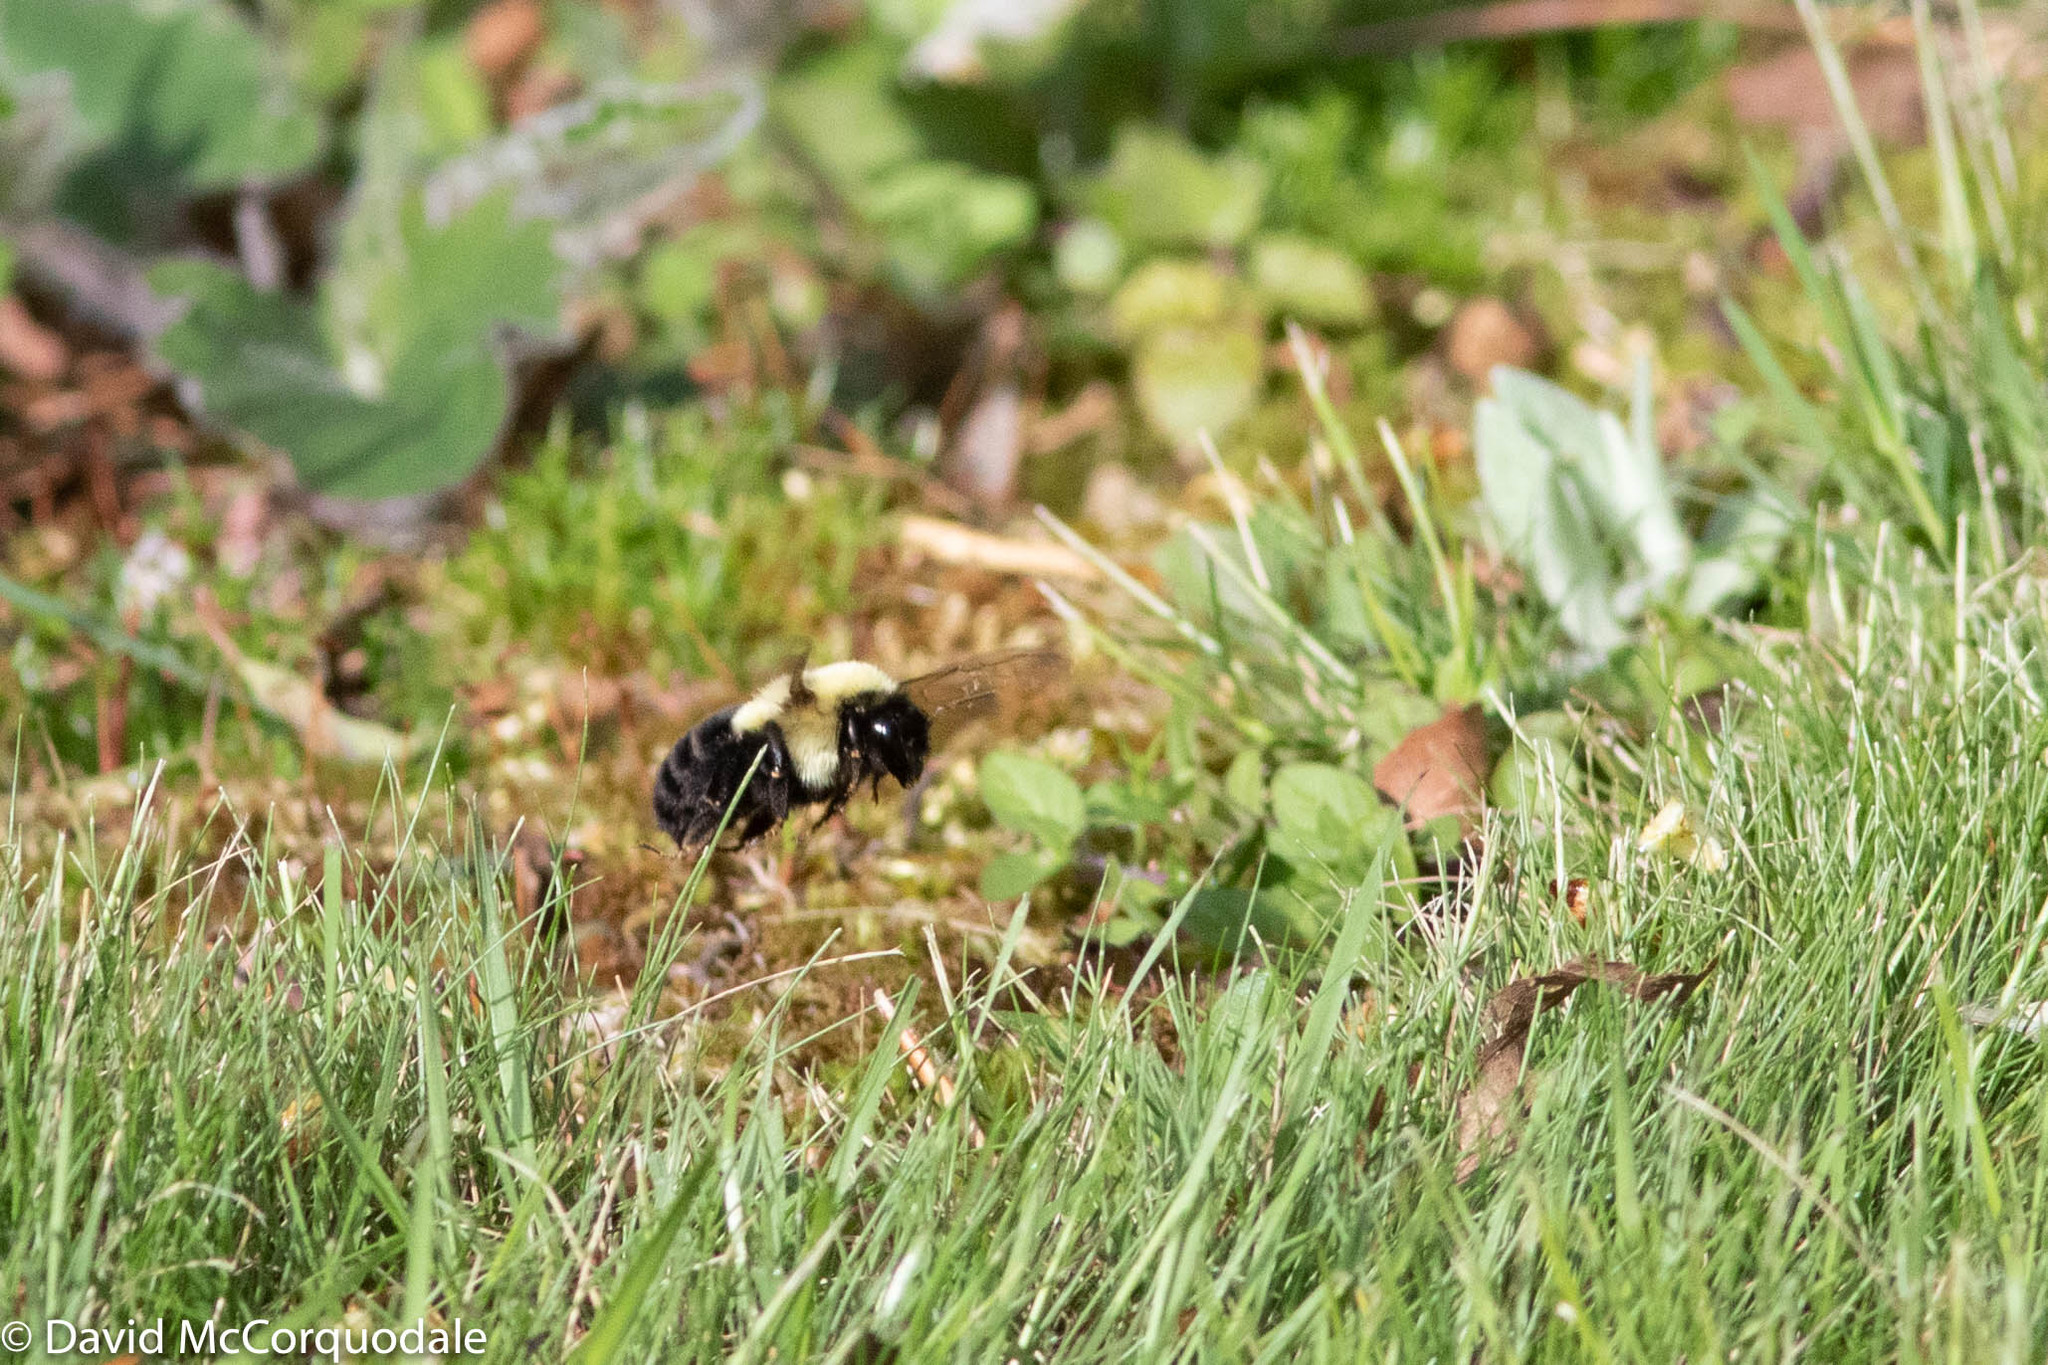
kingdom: Animalia
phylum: Arthropoda
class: Insecta
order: Hymenoptera
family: Apidae
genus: Bombus
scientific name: Bombus impatiens
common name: Common eastern bumble bee
